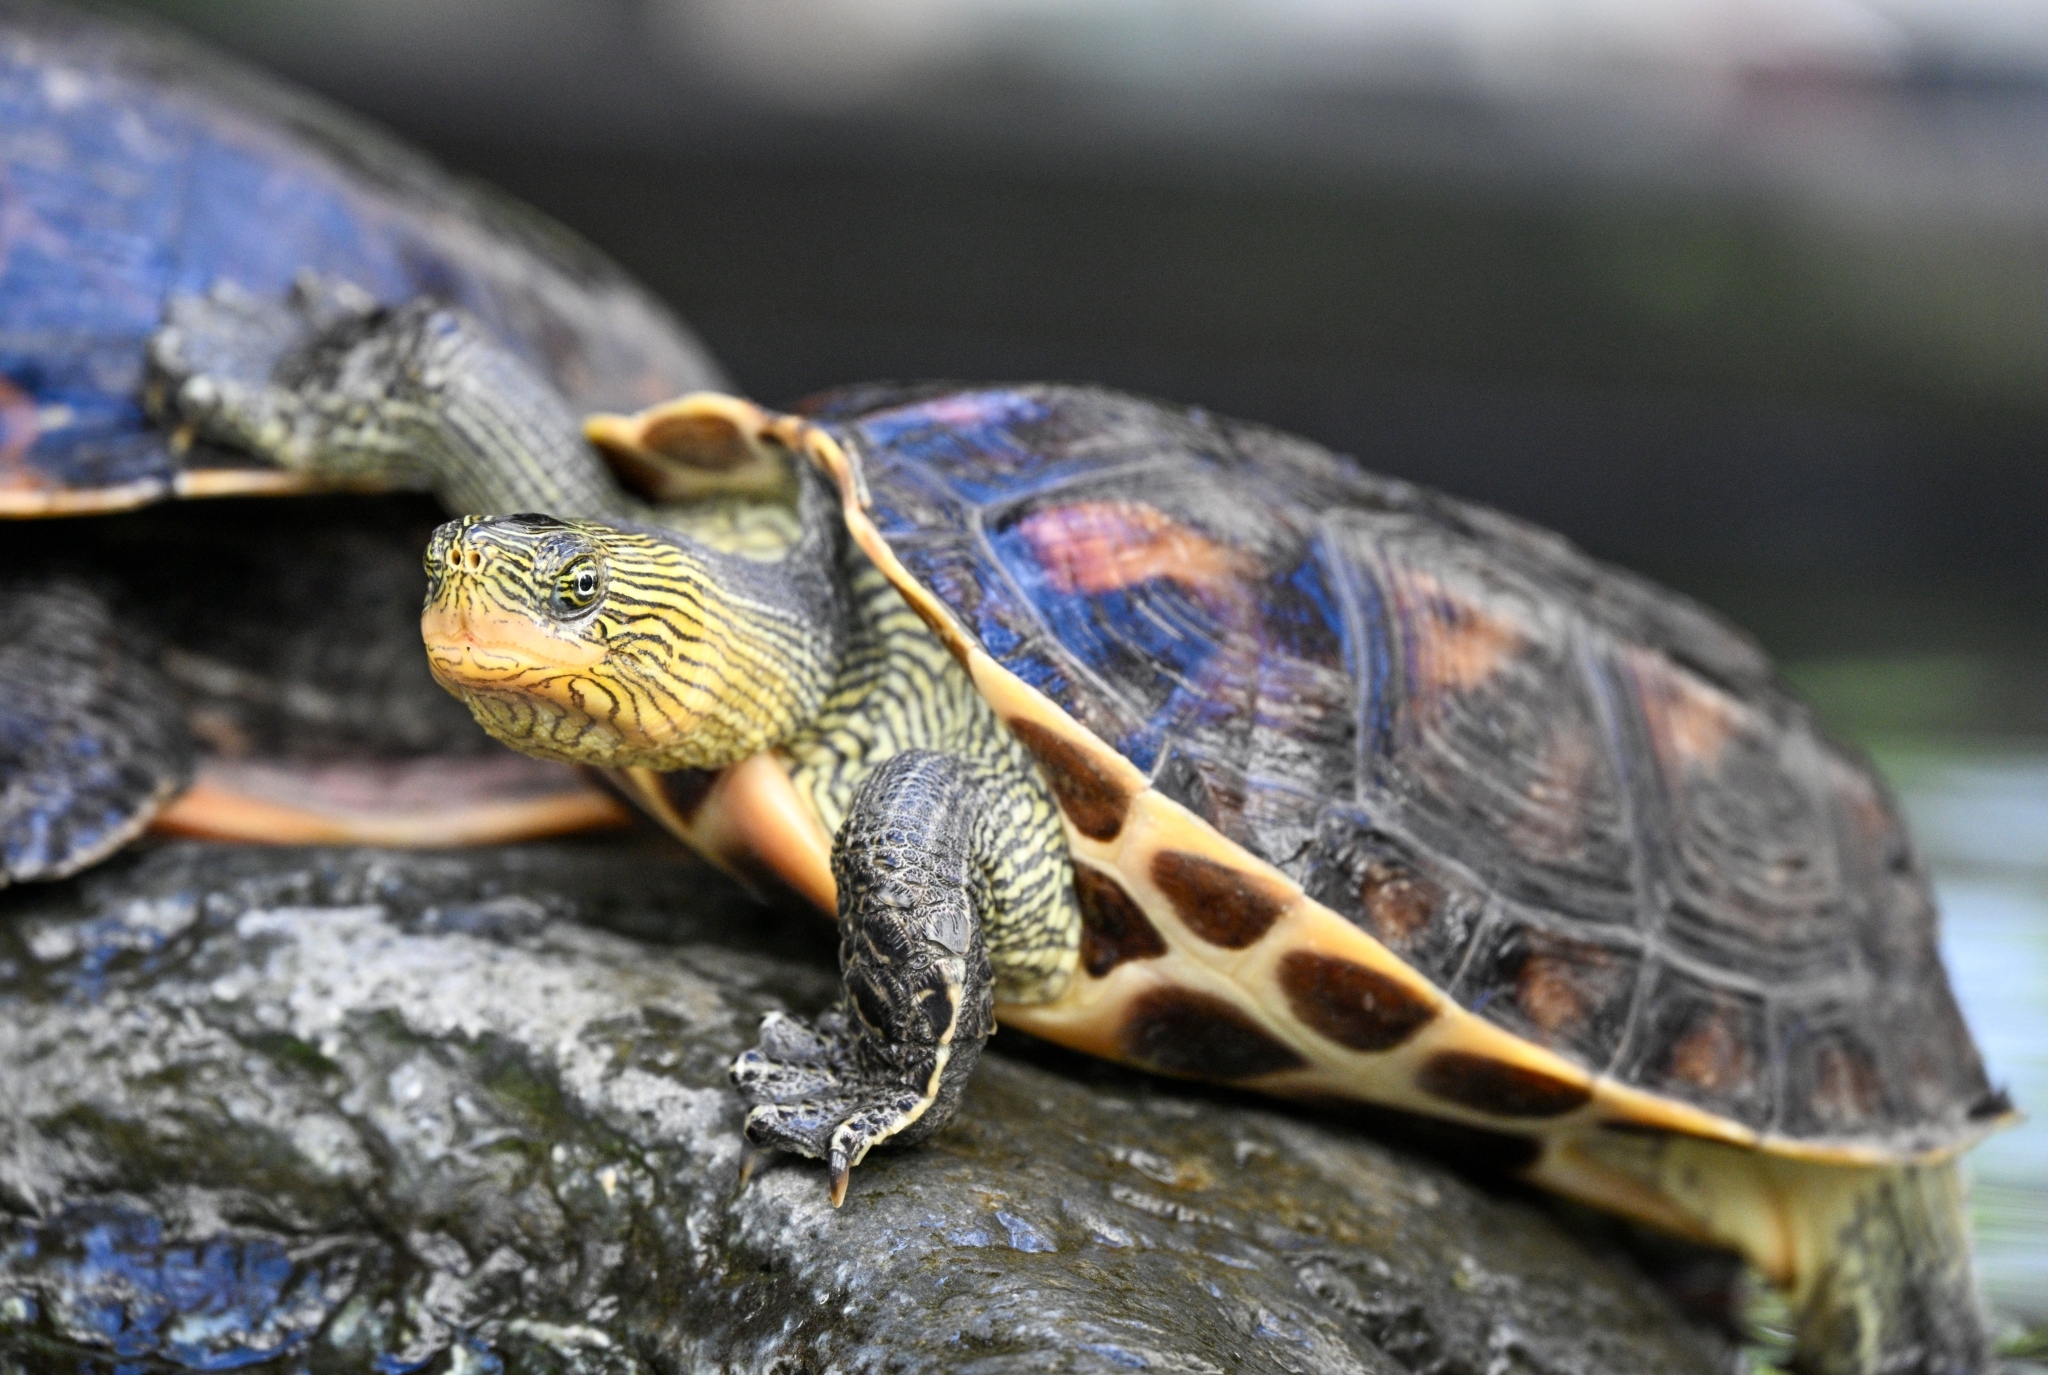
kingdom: Animalia
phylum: Chordata
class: Testudines
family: Geoemydidae
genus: Mauremys
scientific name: Mauremys sinensis
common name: Chinese stripe-necked turtle
